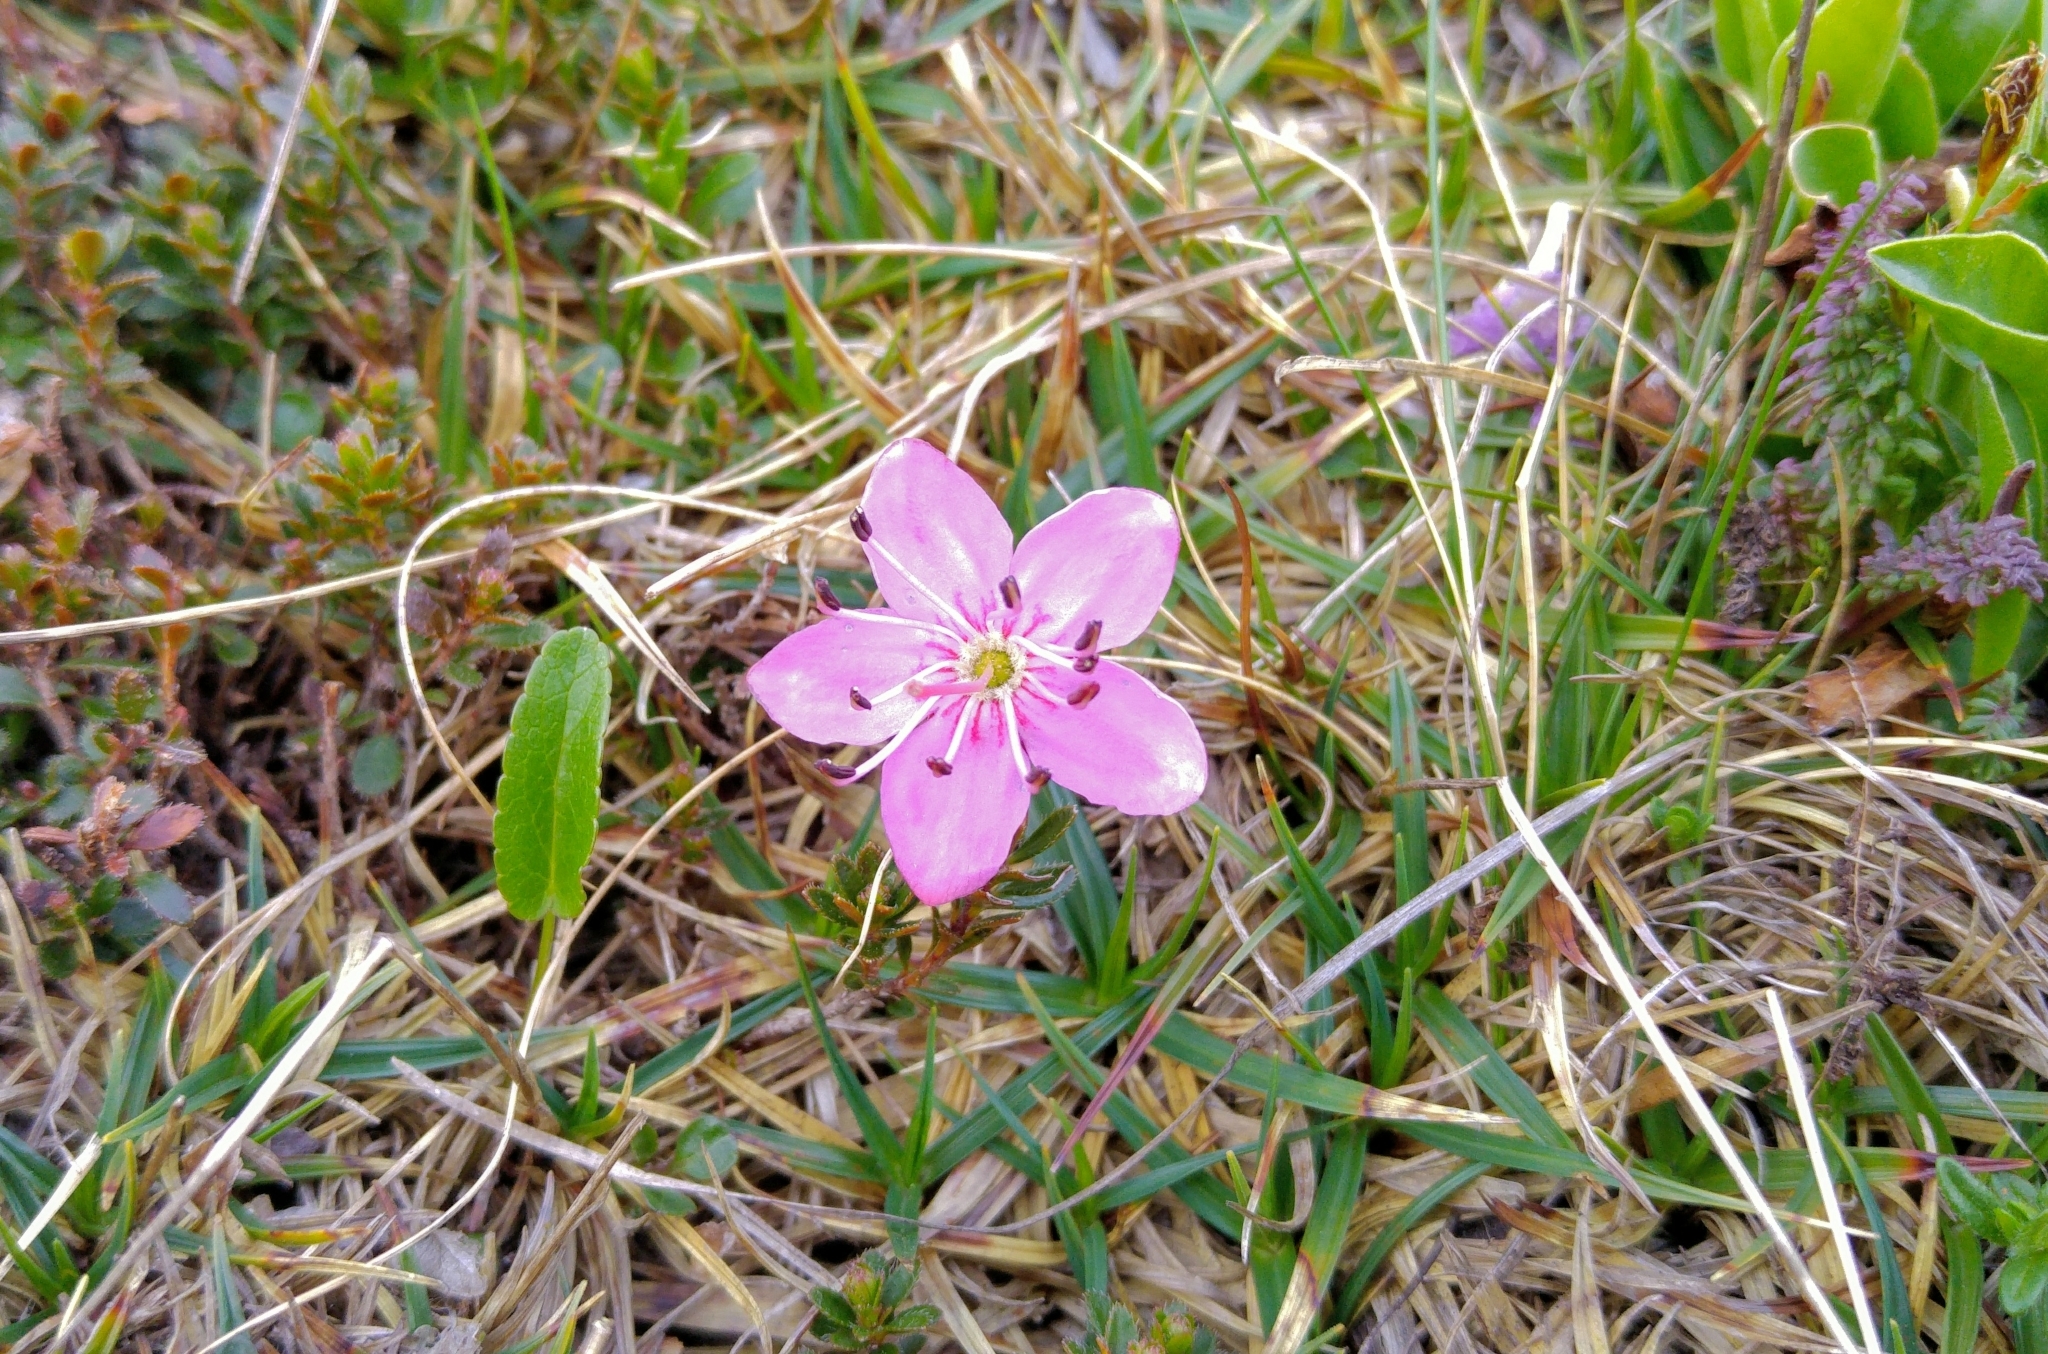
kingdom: Plantae
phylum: Tracheophyta
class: Magnoliopsida
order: Ericales
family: Ericaceae
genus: Rhodothamnus
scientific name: Rhodothamnus chamaecistus
